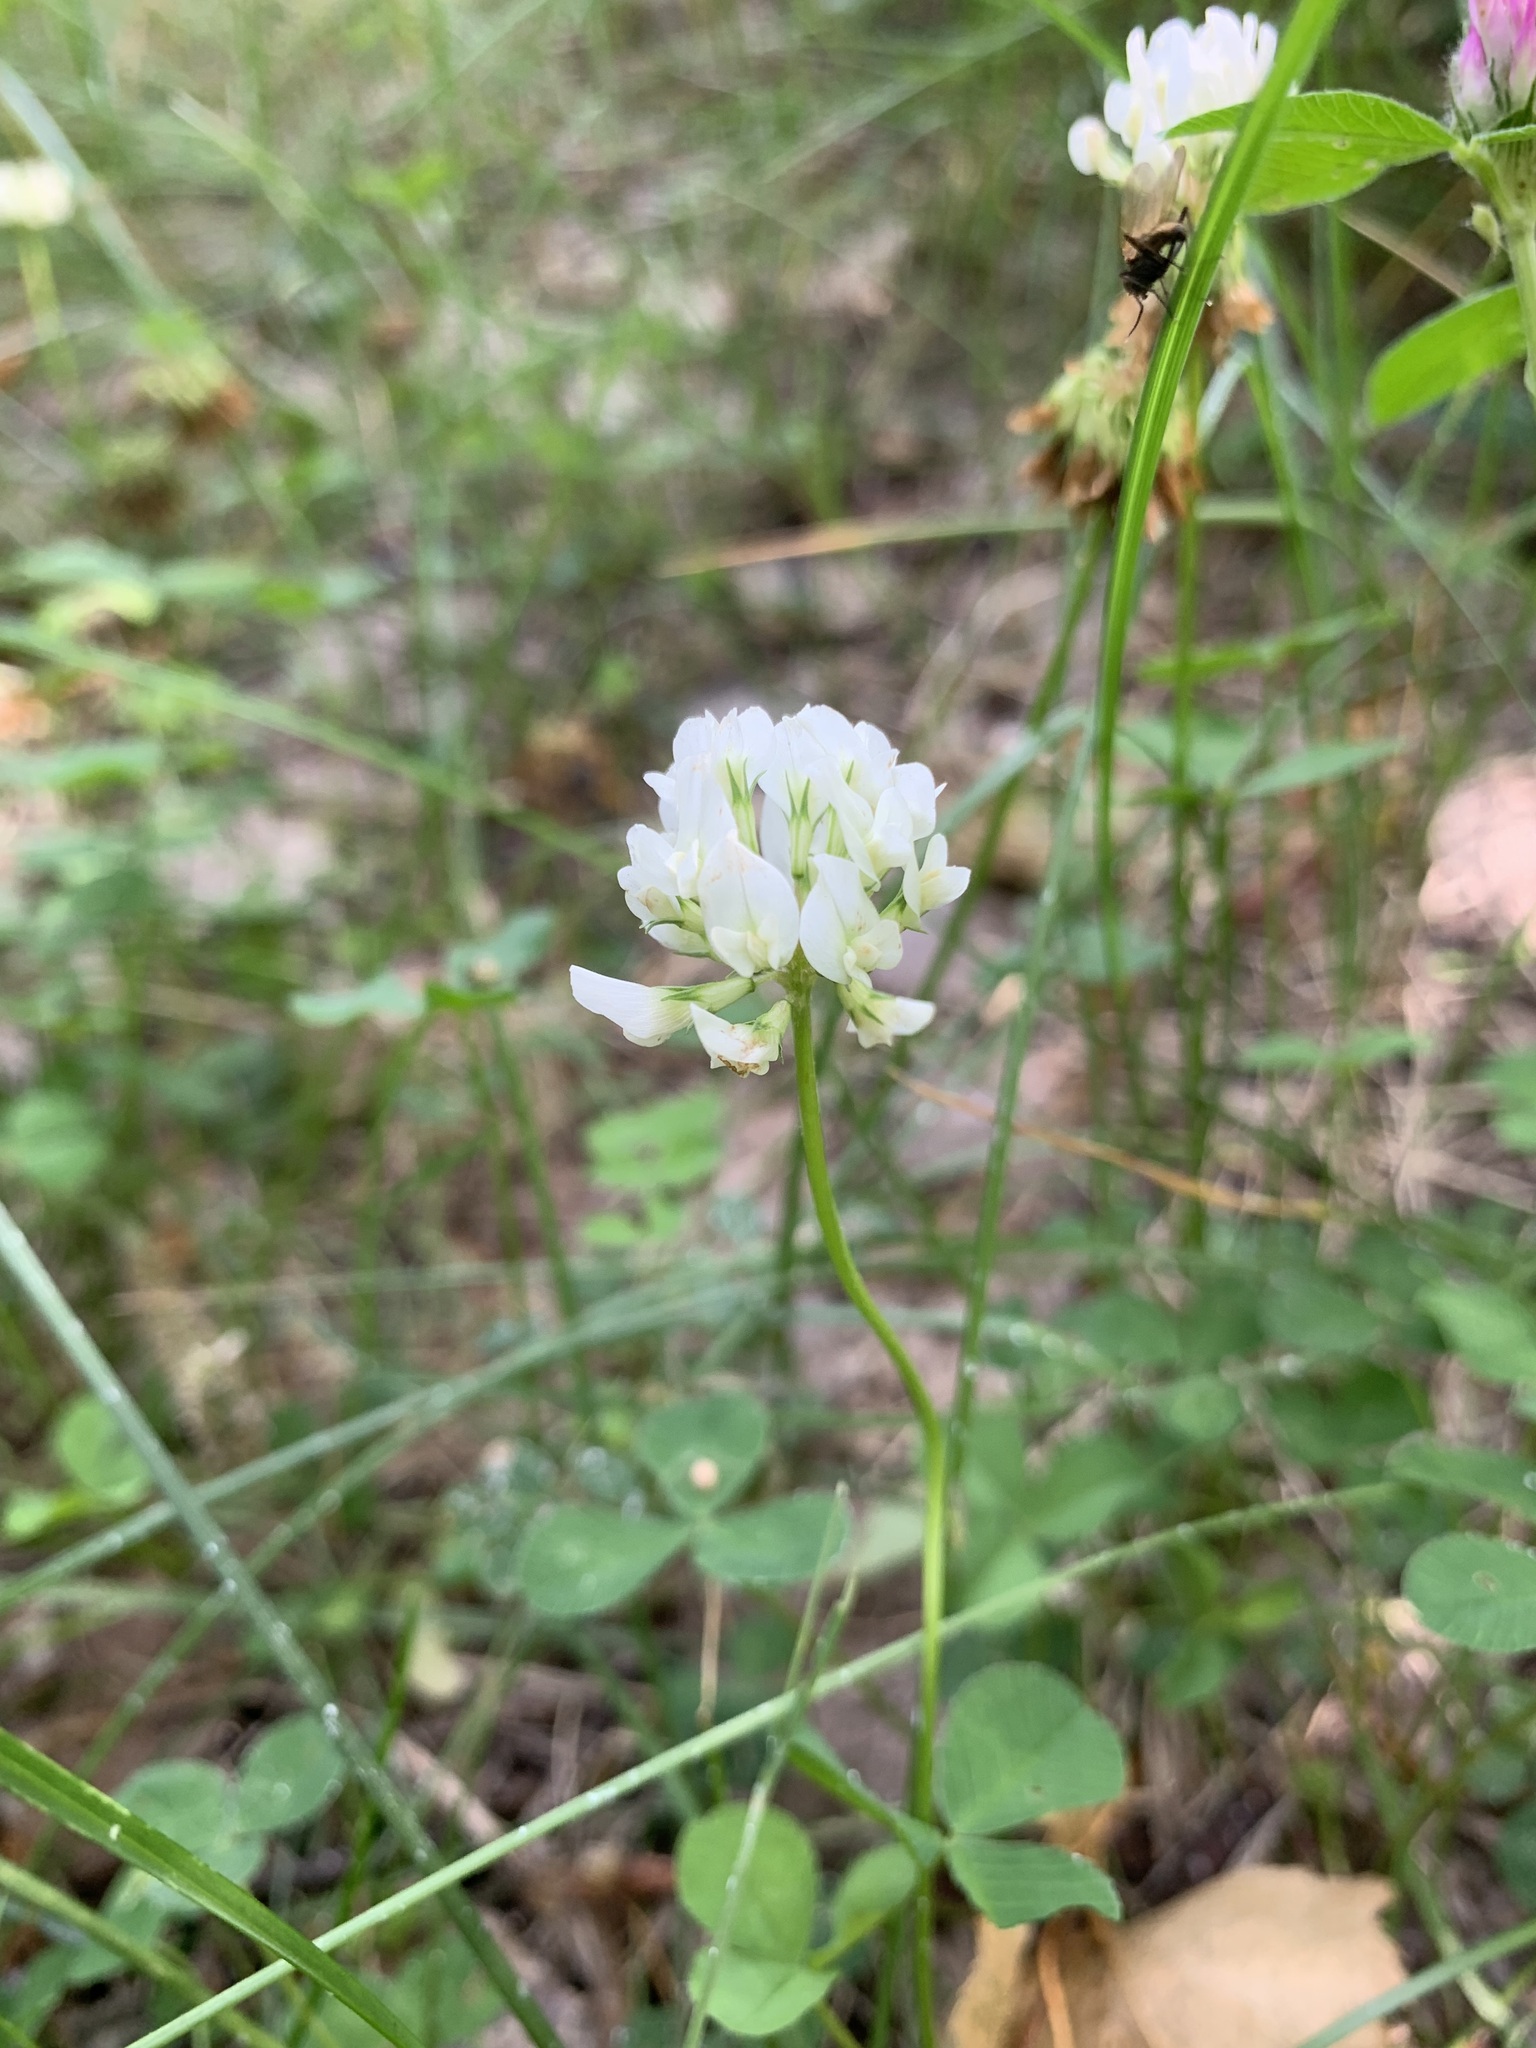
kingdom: Plantae
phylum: Tracheophyta
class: Magnoliopsida
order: Fabales
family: Fabaceae
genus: Trifolium
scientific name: Trifolium repens
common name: White clover
